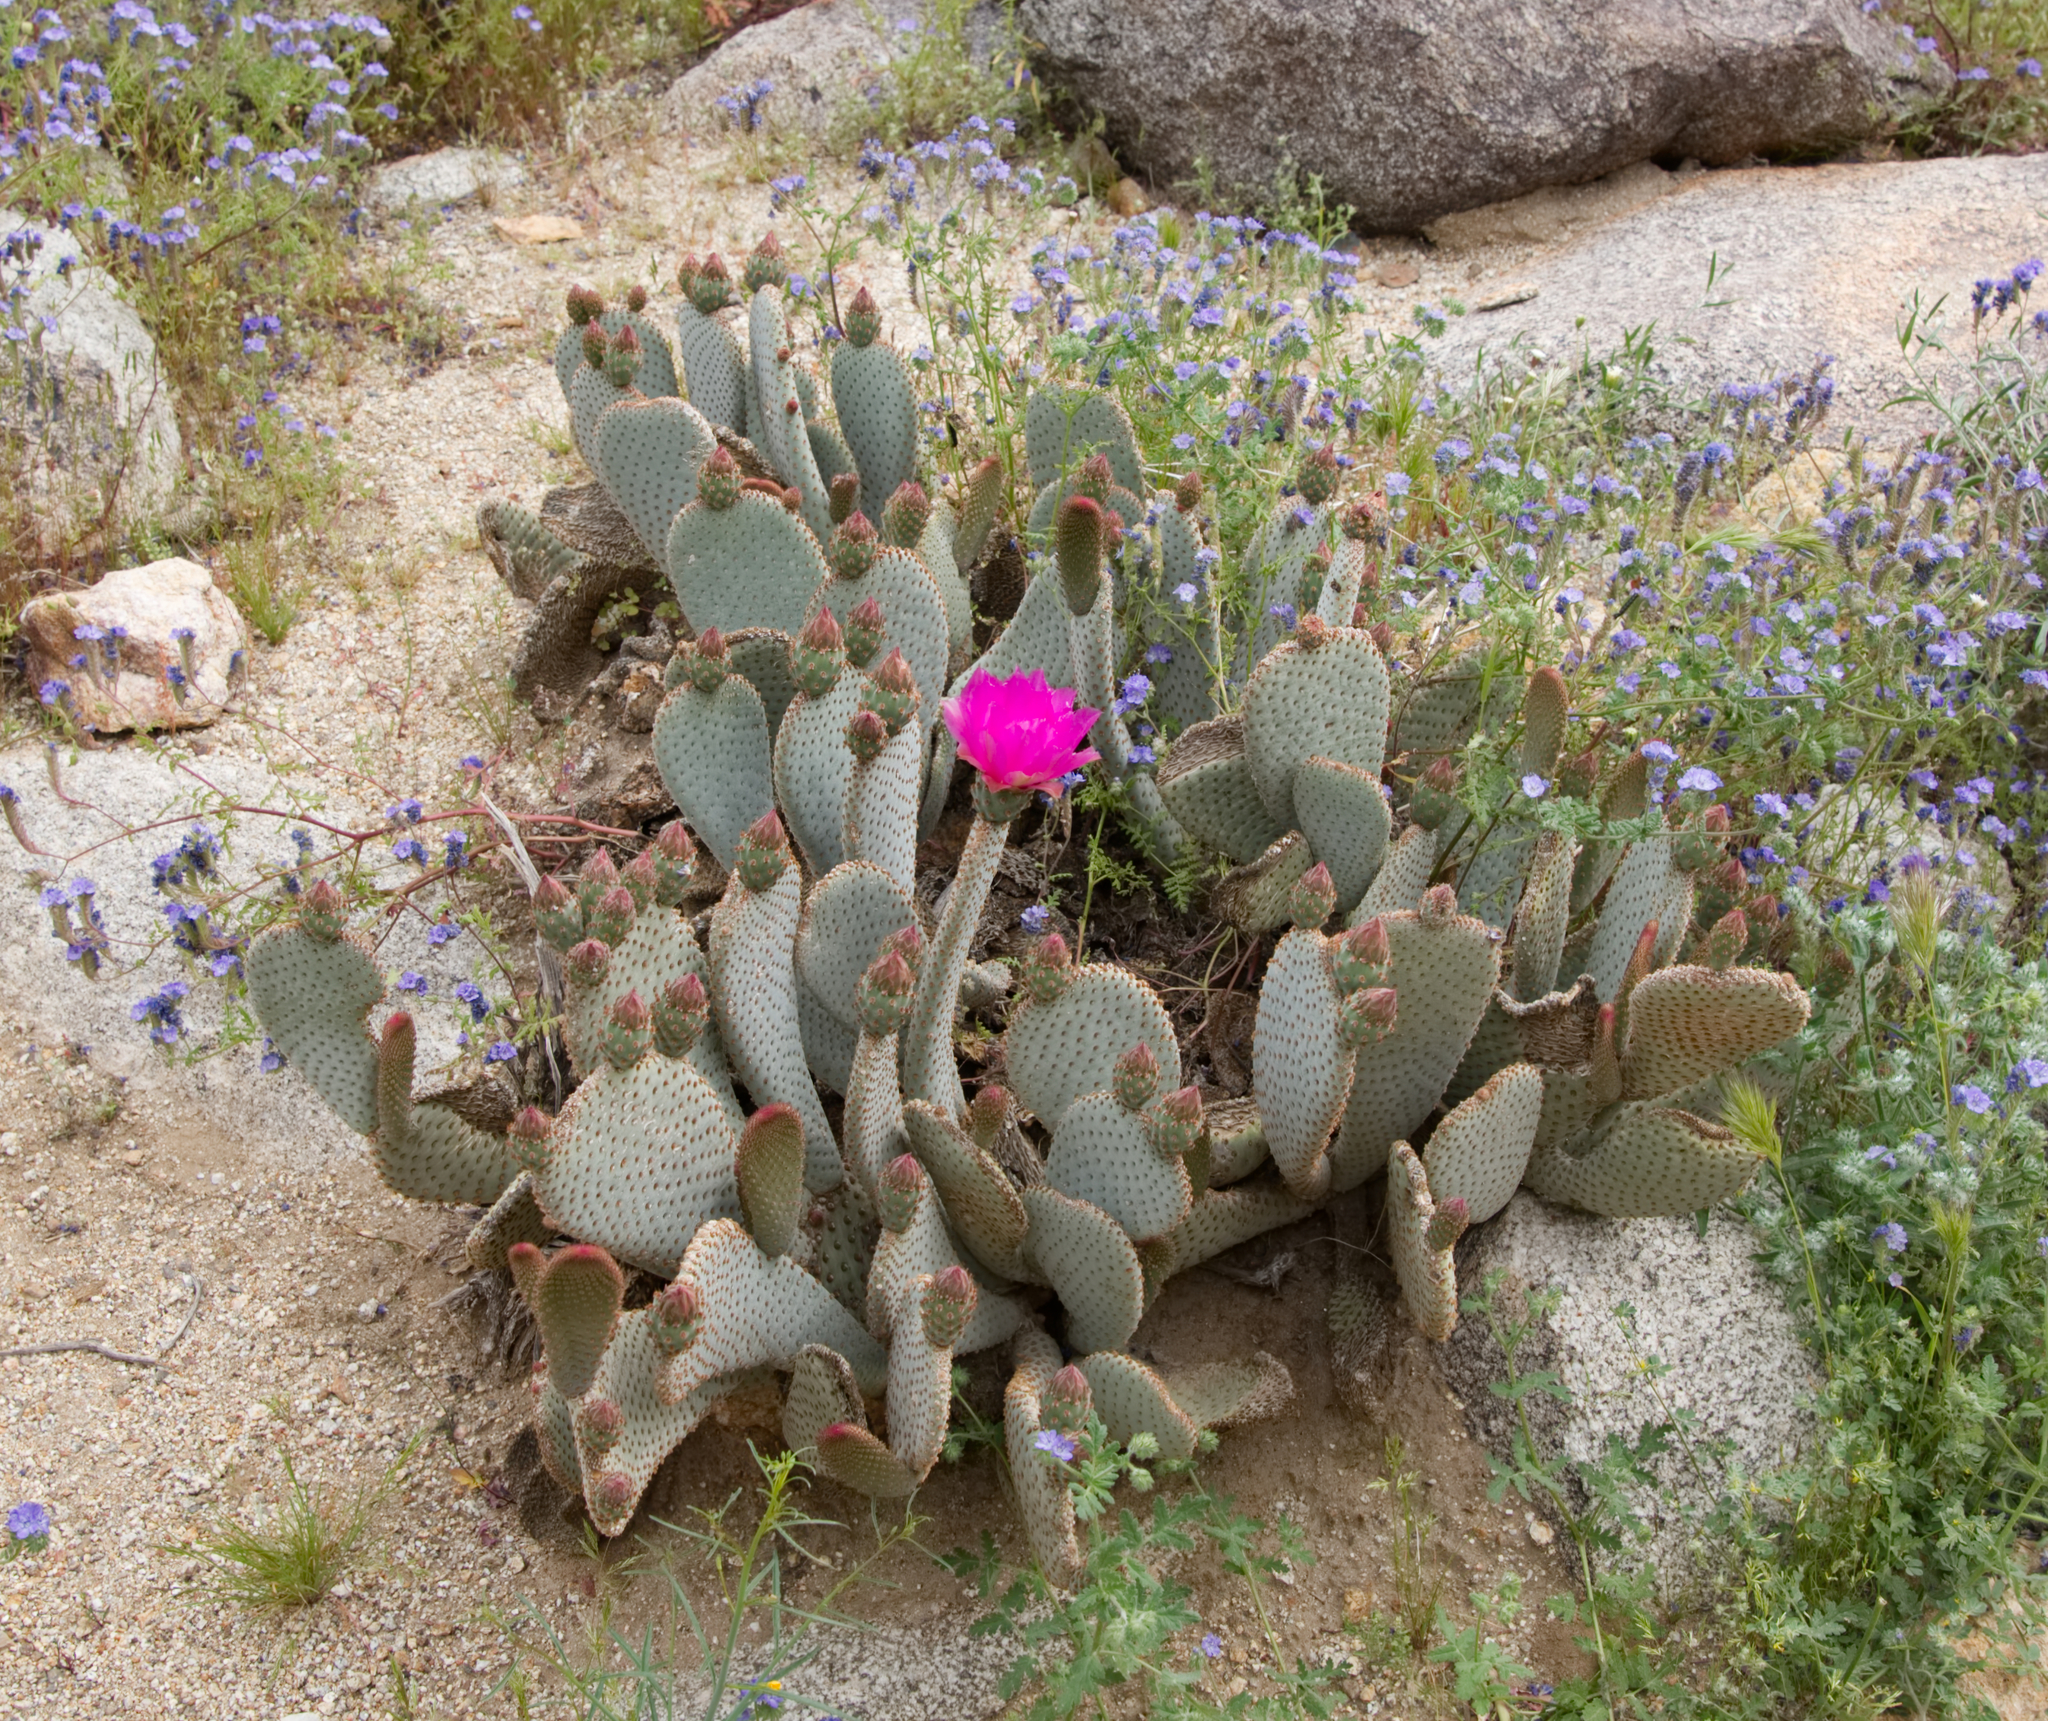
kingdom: Plantae
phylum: Tracheophyta
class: Magnoliopsida
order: Caryophyllales
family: Cactaceae
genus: Opuntia
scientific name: Opuntia basilaris
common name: Beavertail prickly-pear
